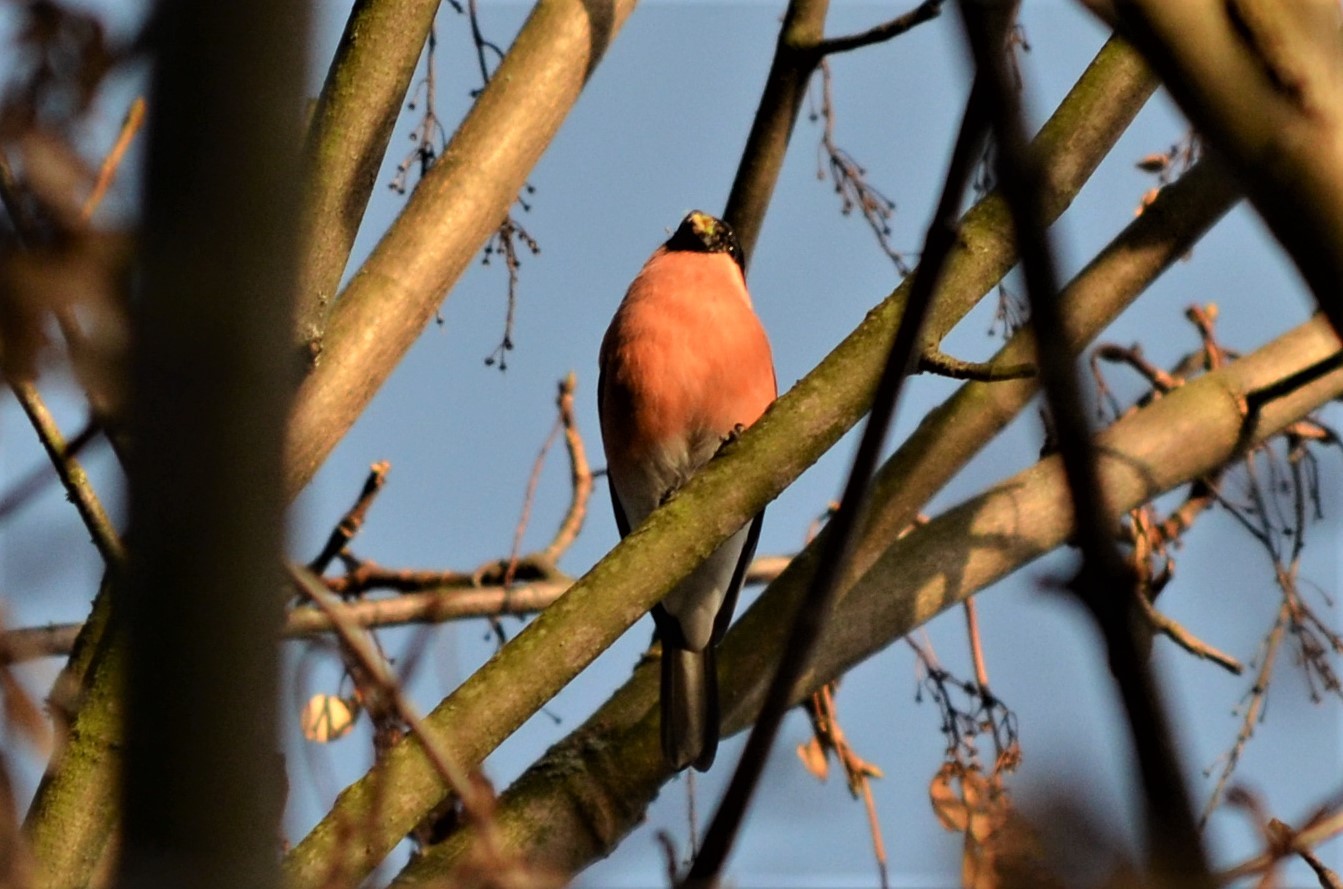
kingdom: Animalia
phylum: Chordata
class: Aves
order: Passeriformes
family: Fringillidae
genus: Pyrrhula
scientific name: Pyrrhula pyrrhula
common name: Eurasian bullfinch
